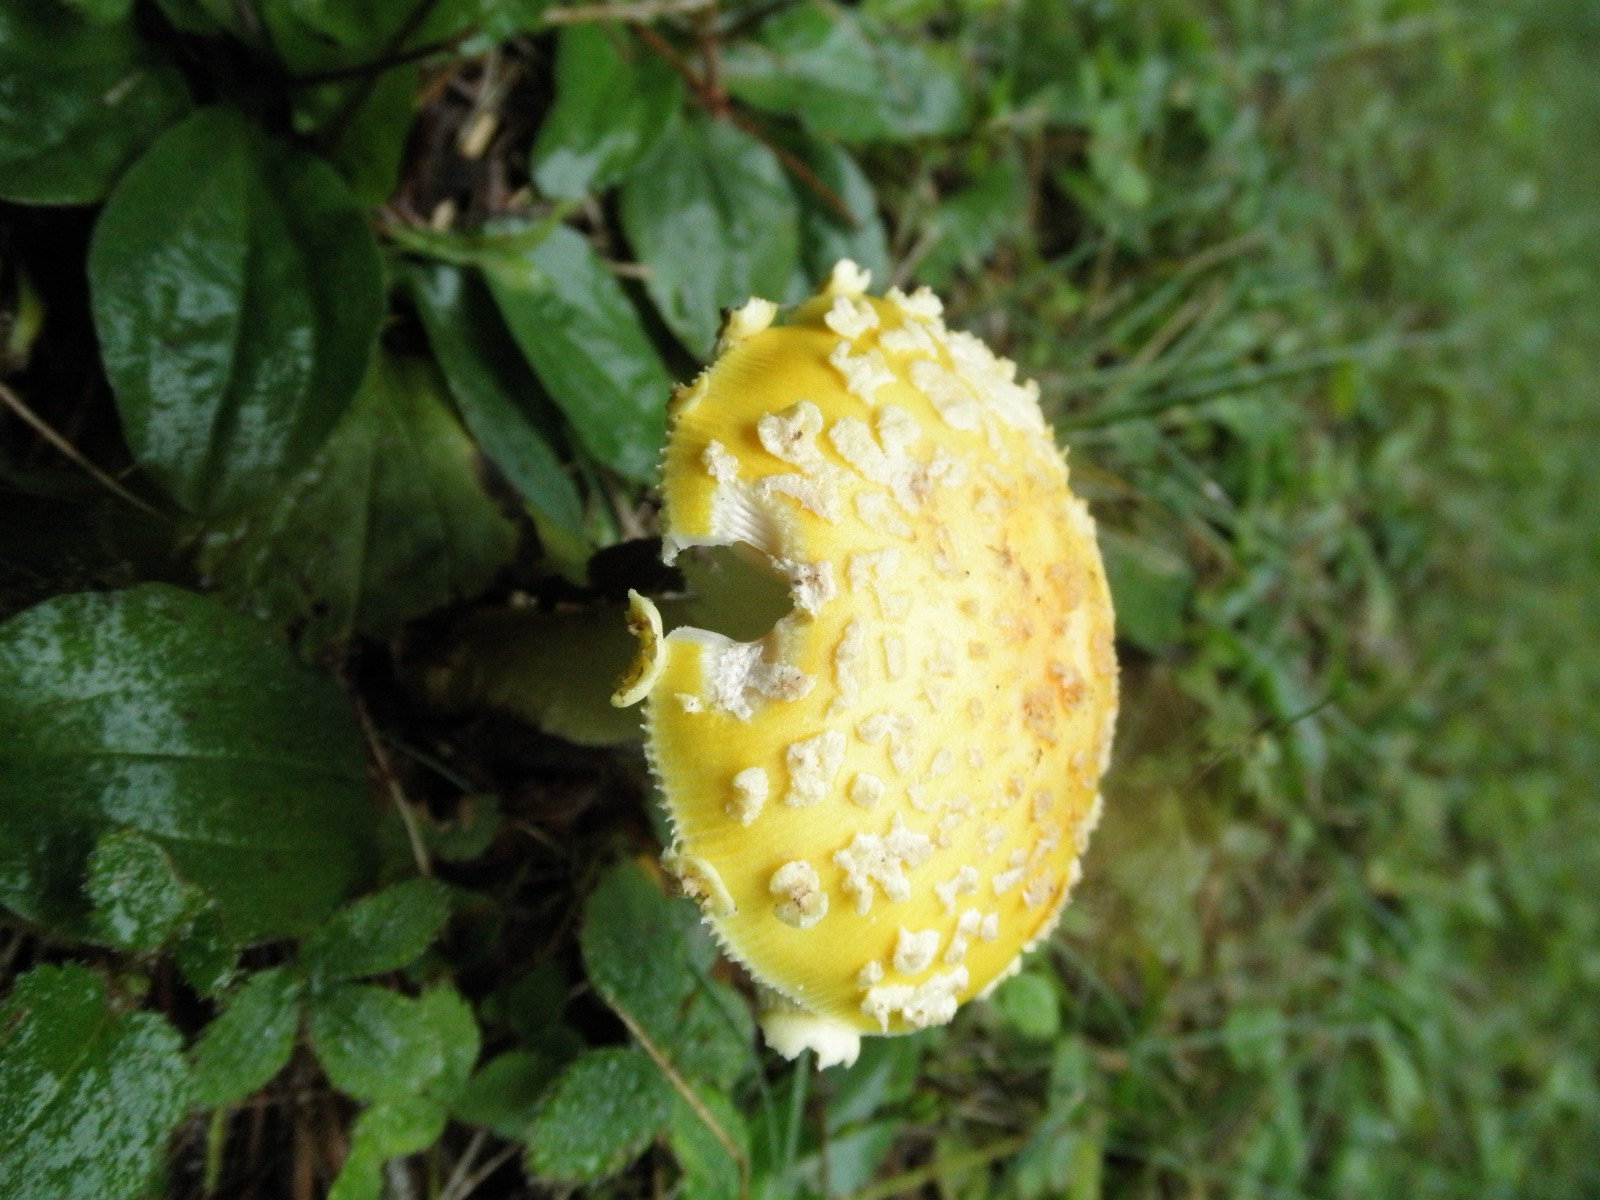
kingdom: Fungi
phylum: Basidiomycota
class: Agaricomycetes
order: Agaricales
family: Amanitaceae
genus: Amanita
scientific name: Amanita muscaria
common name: Fly agaric
